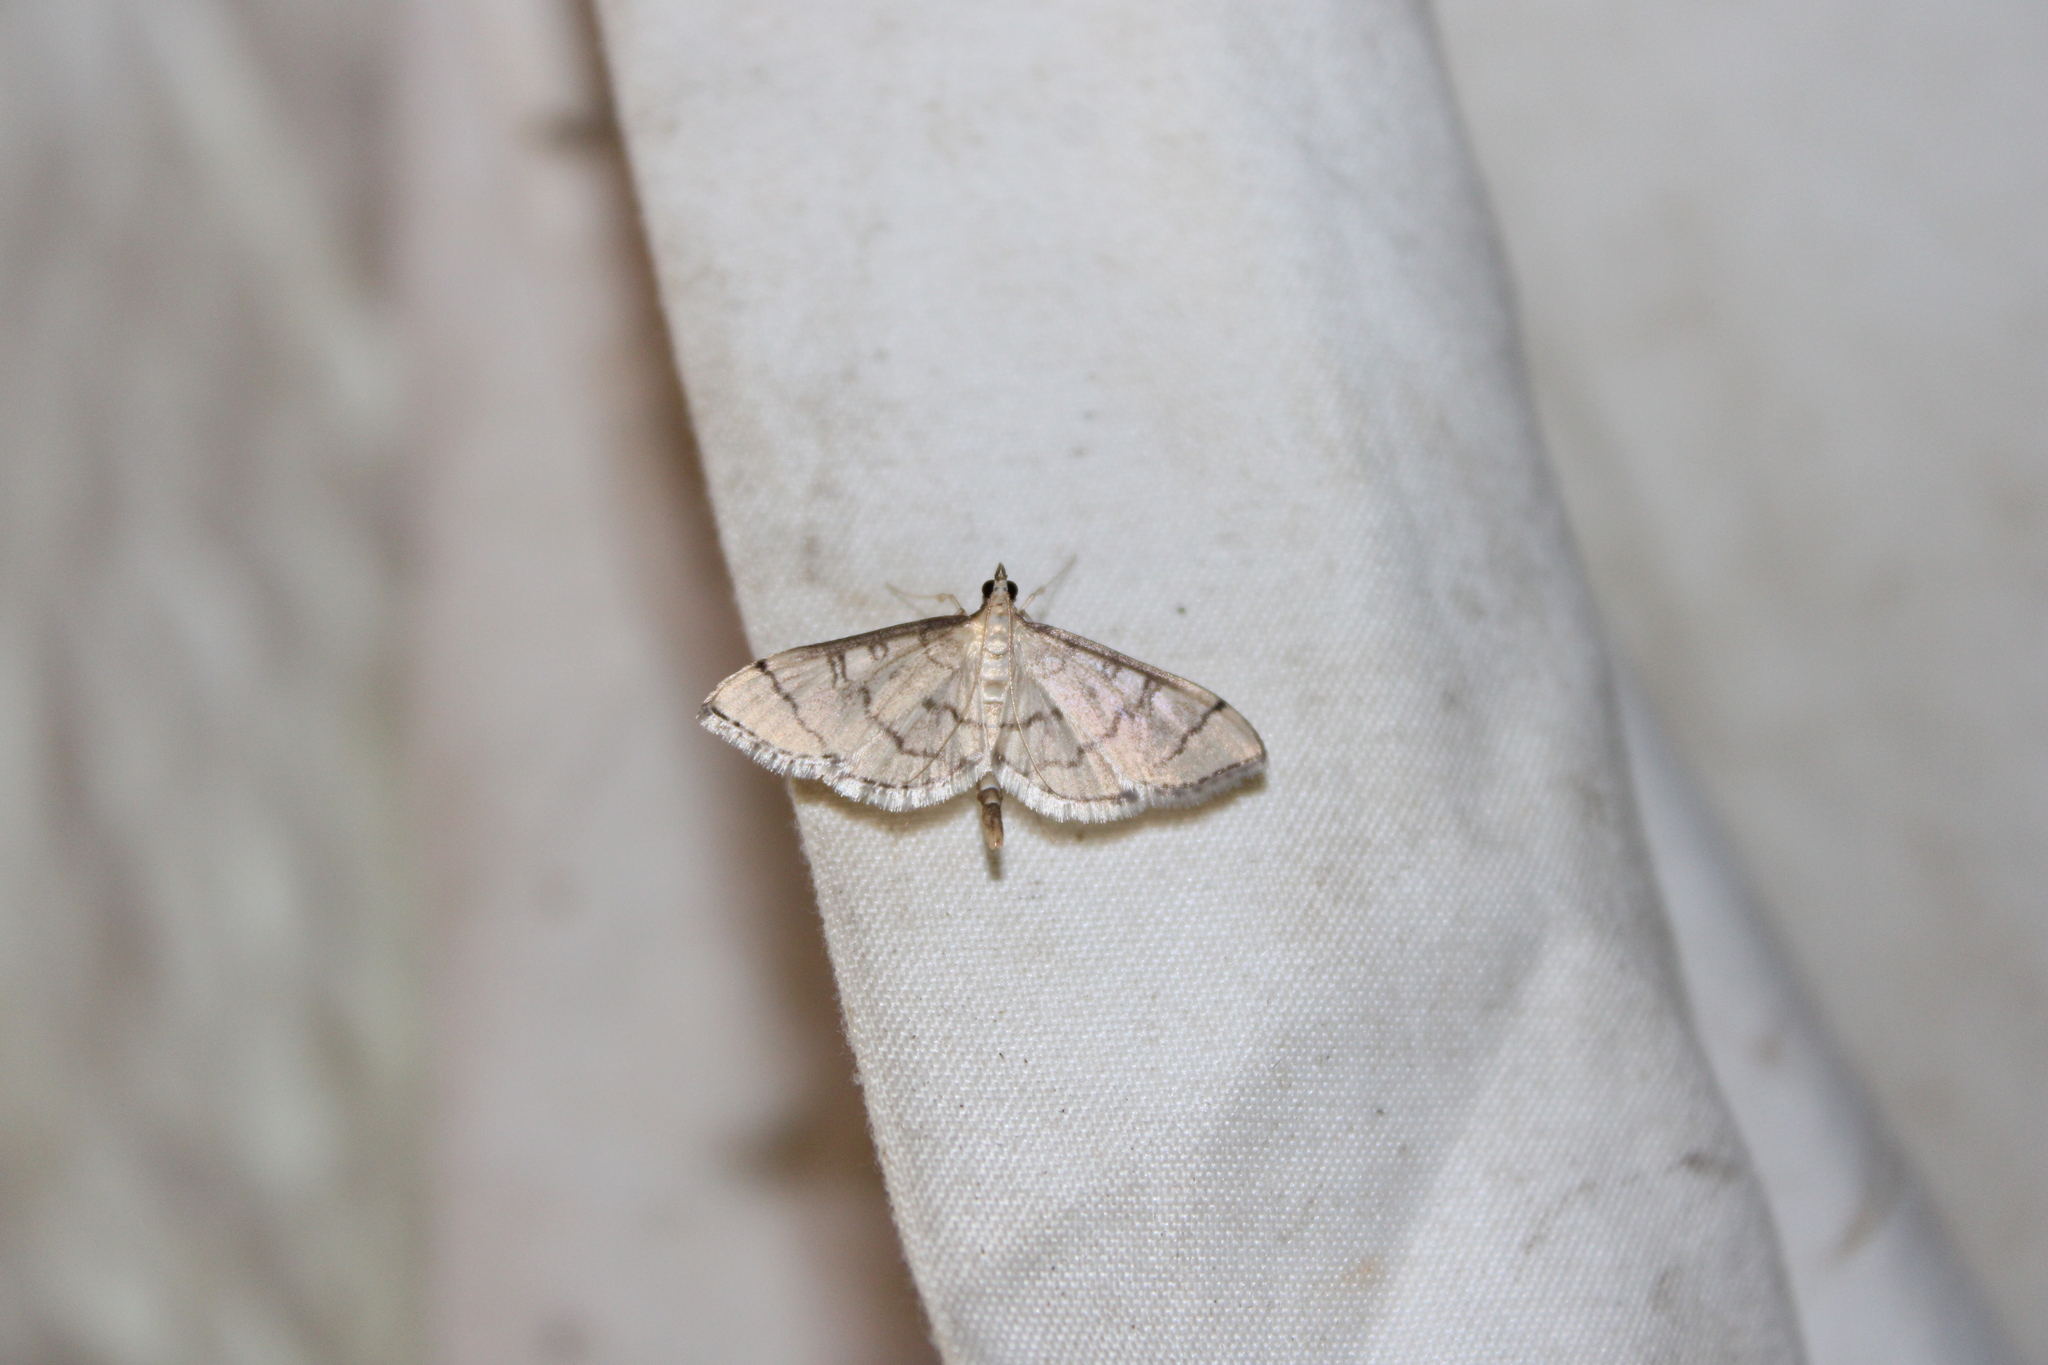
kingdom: Animalia
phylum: Arthropoda
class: Insecta
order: Lepidoptera
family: Crambidae
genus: Lamprosema
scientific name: Lamprosema Blepharomastix ranalis
